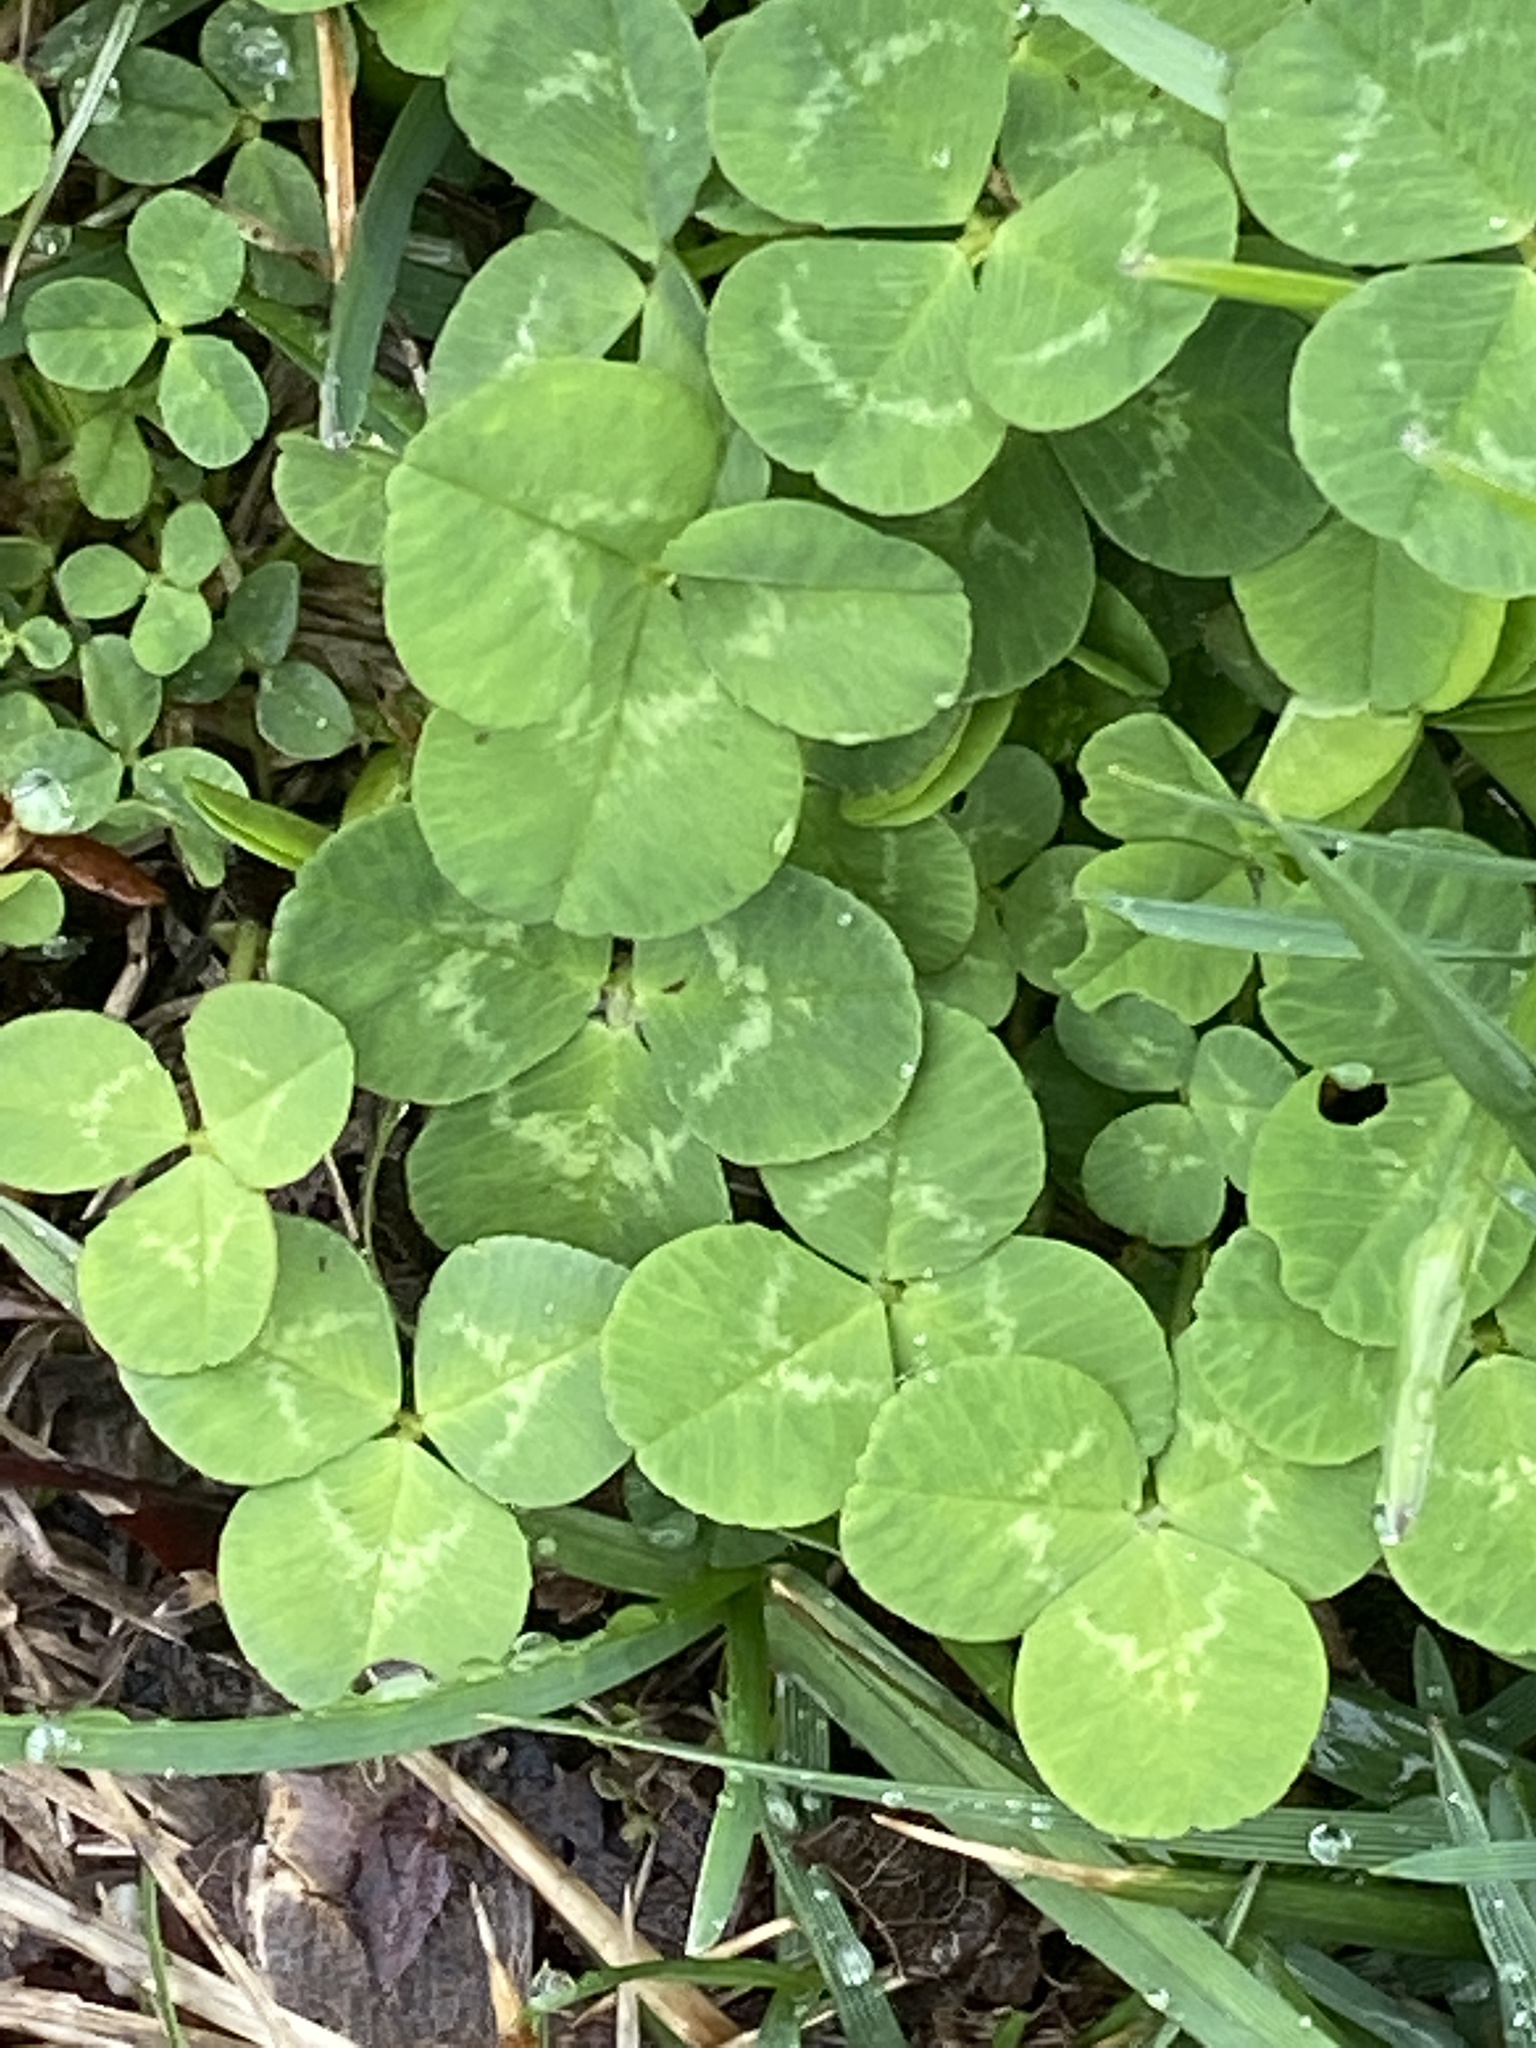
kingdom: Plantae
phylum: Tracheophyta
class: Magnoliopsida
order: Fabales
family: Fabaceae
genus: Trifolium
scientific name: Trifolium repens
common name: White clover
